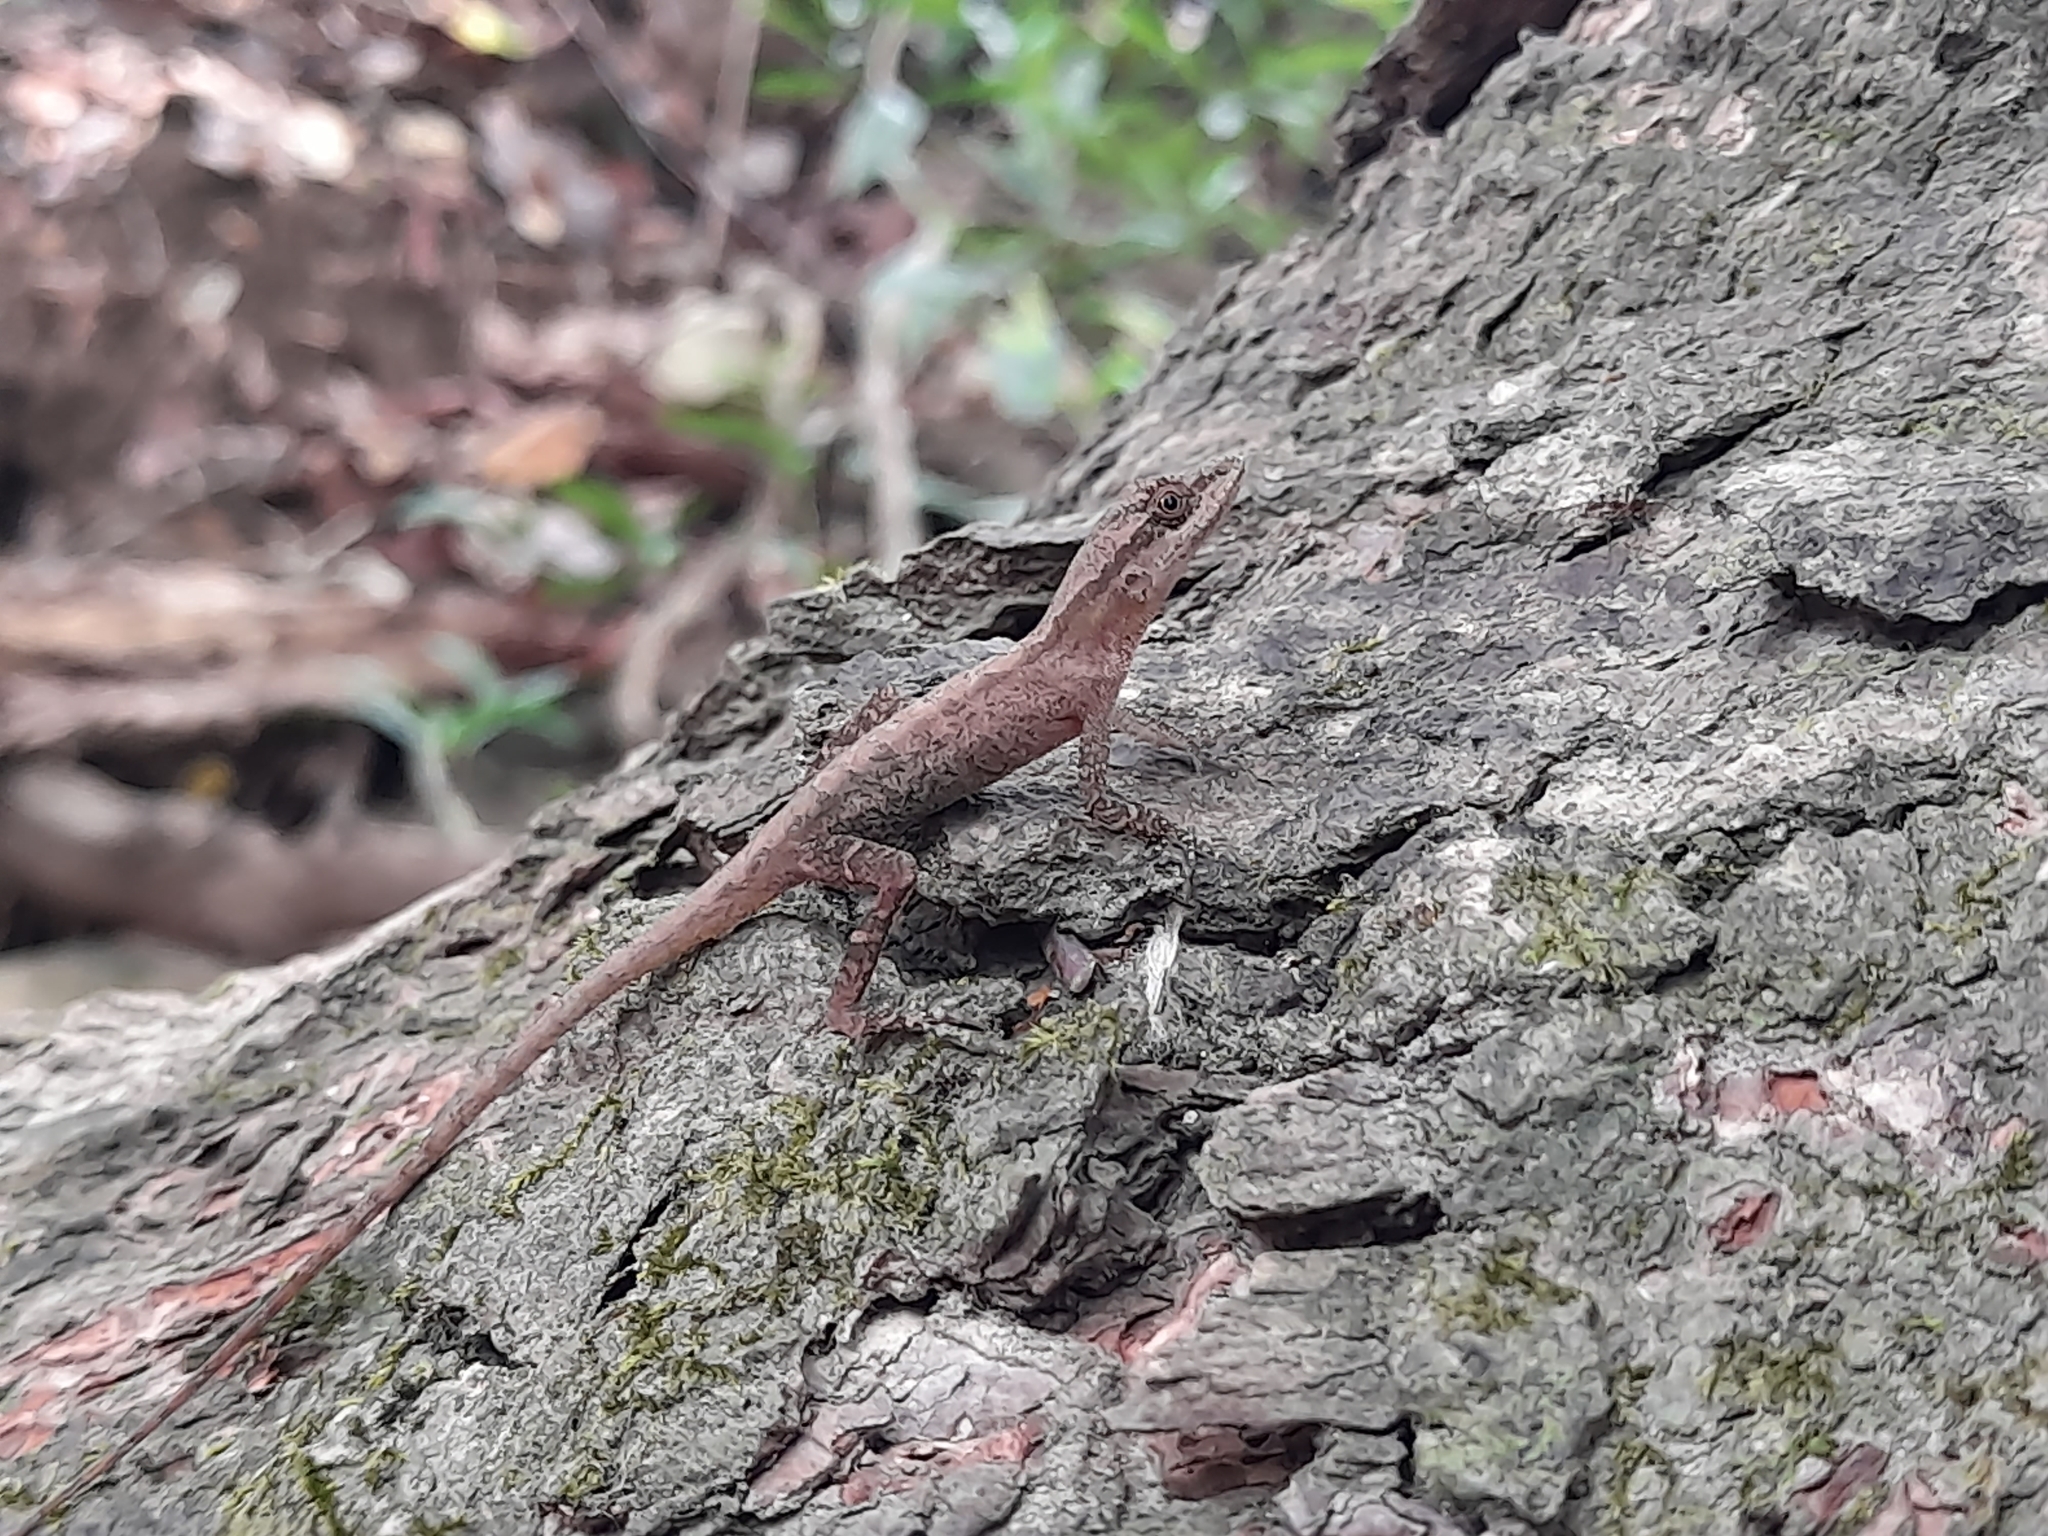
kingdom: Animalia
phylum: Chordata
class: Squamata
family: Dactyloidae
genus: Anolis
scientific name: Anolis gaigei
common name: Gaige’s anole
